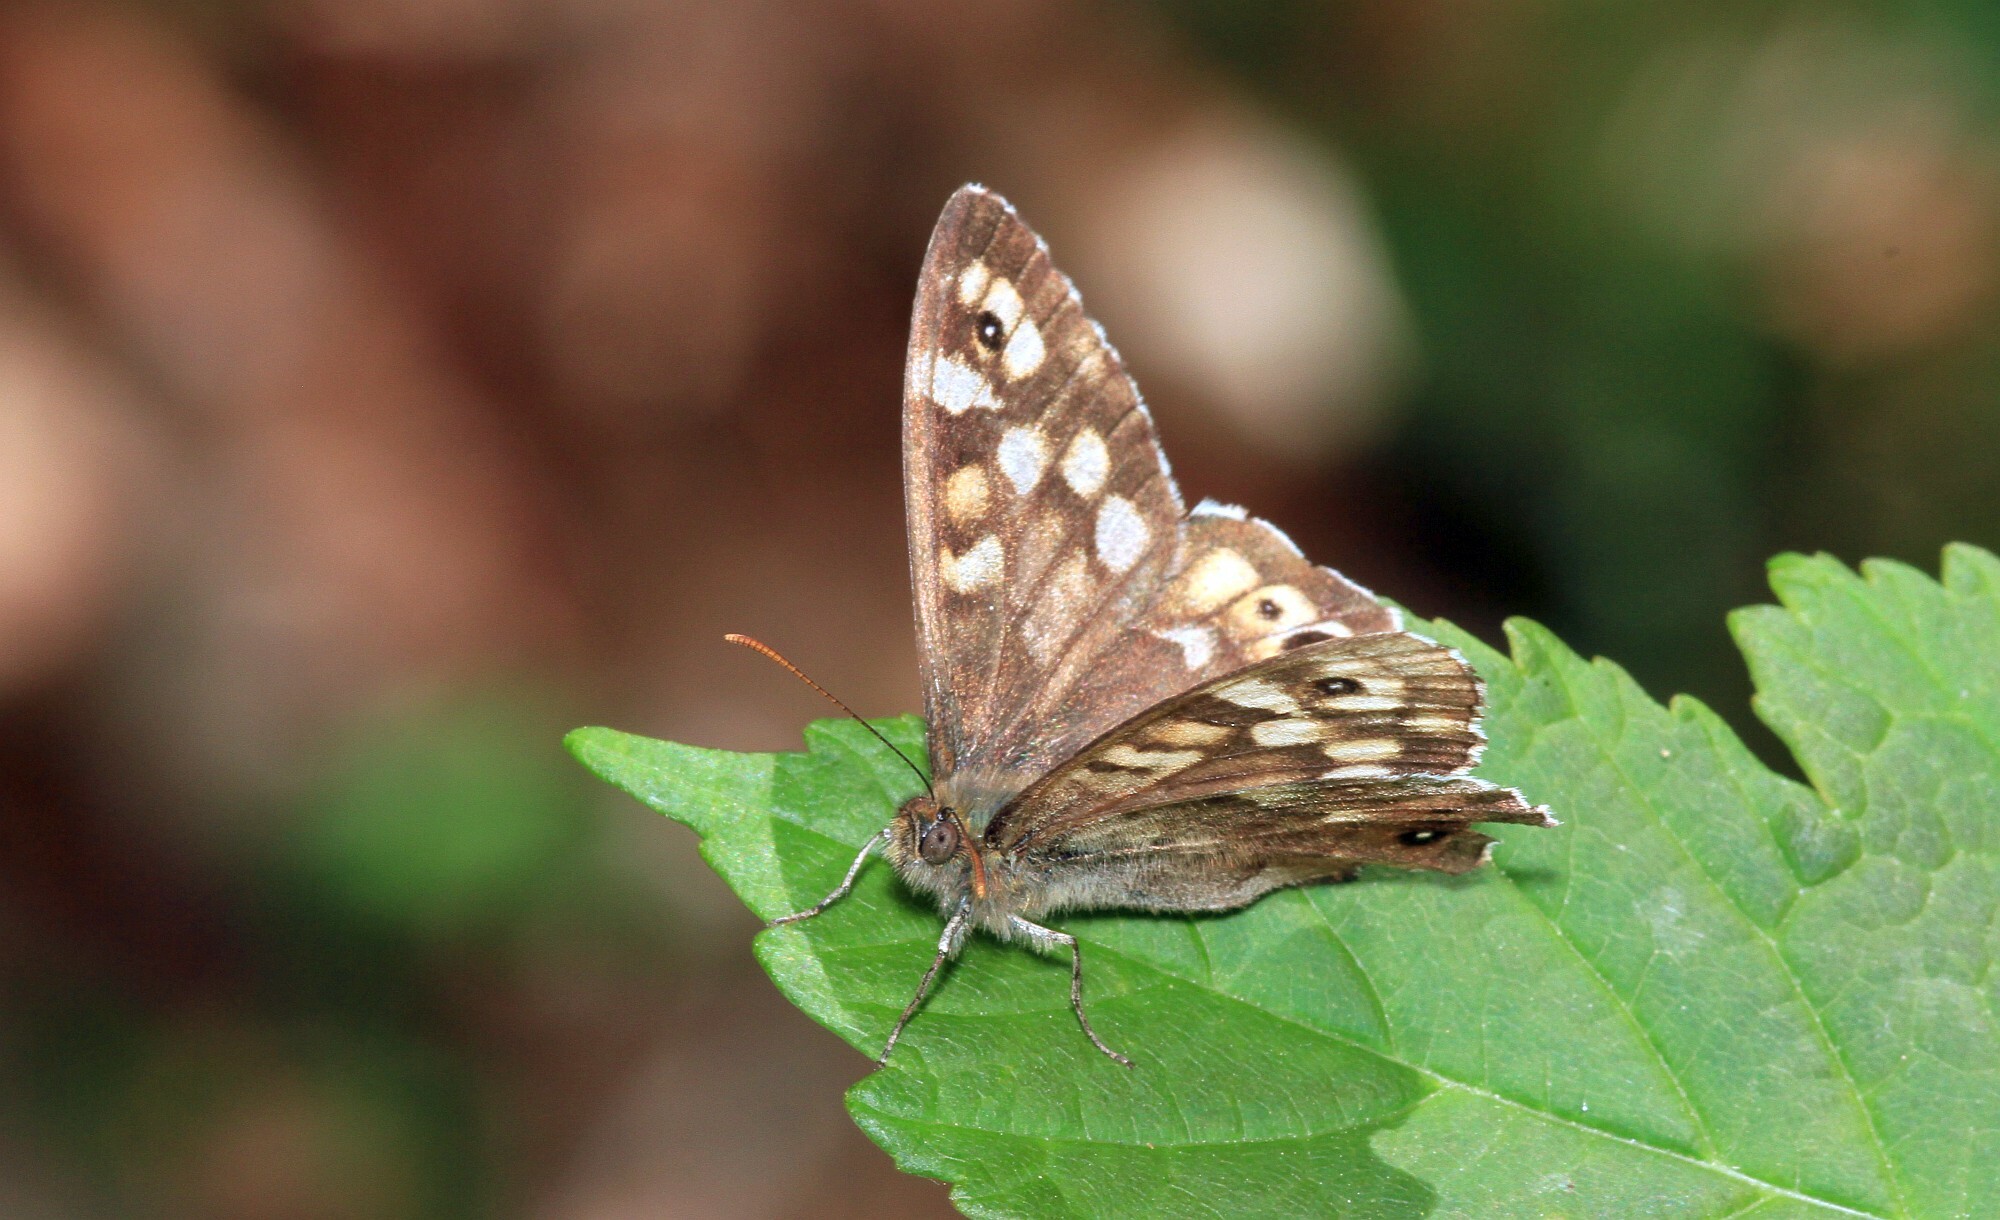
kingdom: Animalia
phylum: Arthropoda
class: Insecta
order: Lepidoptera
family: Nymphalidae
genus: Pararge
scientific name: Pararge aegeria
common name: Speckled wood
